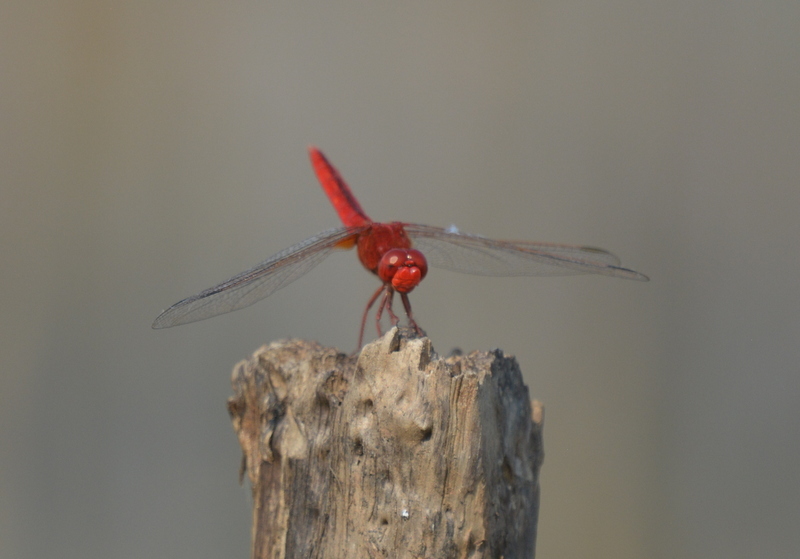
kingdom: Animalia
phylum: Arthropoda
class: Insecta
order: Odonata
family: Libellulidae
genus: Crocothemis
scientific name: Crocothemis servilia
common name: Scarlet skimmer
